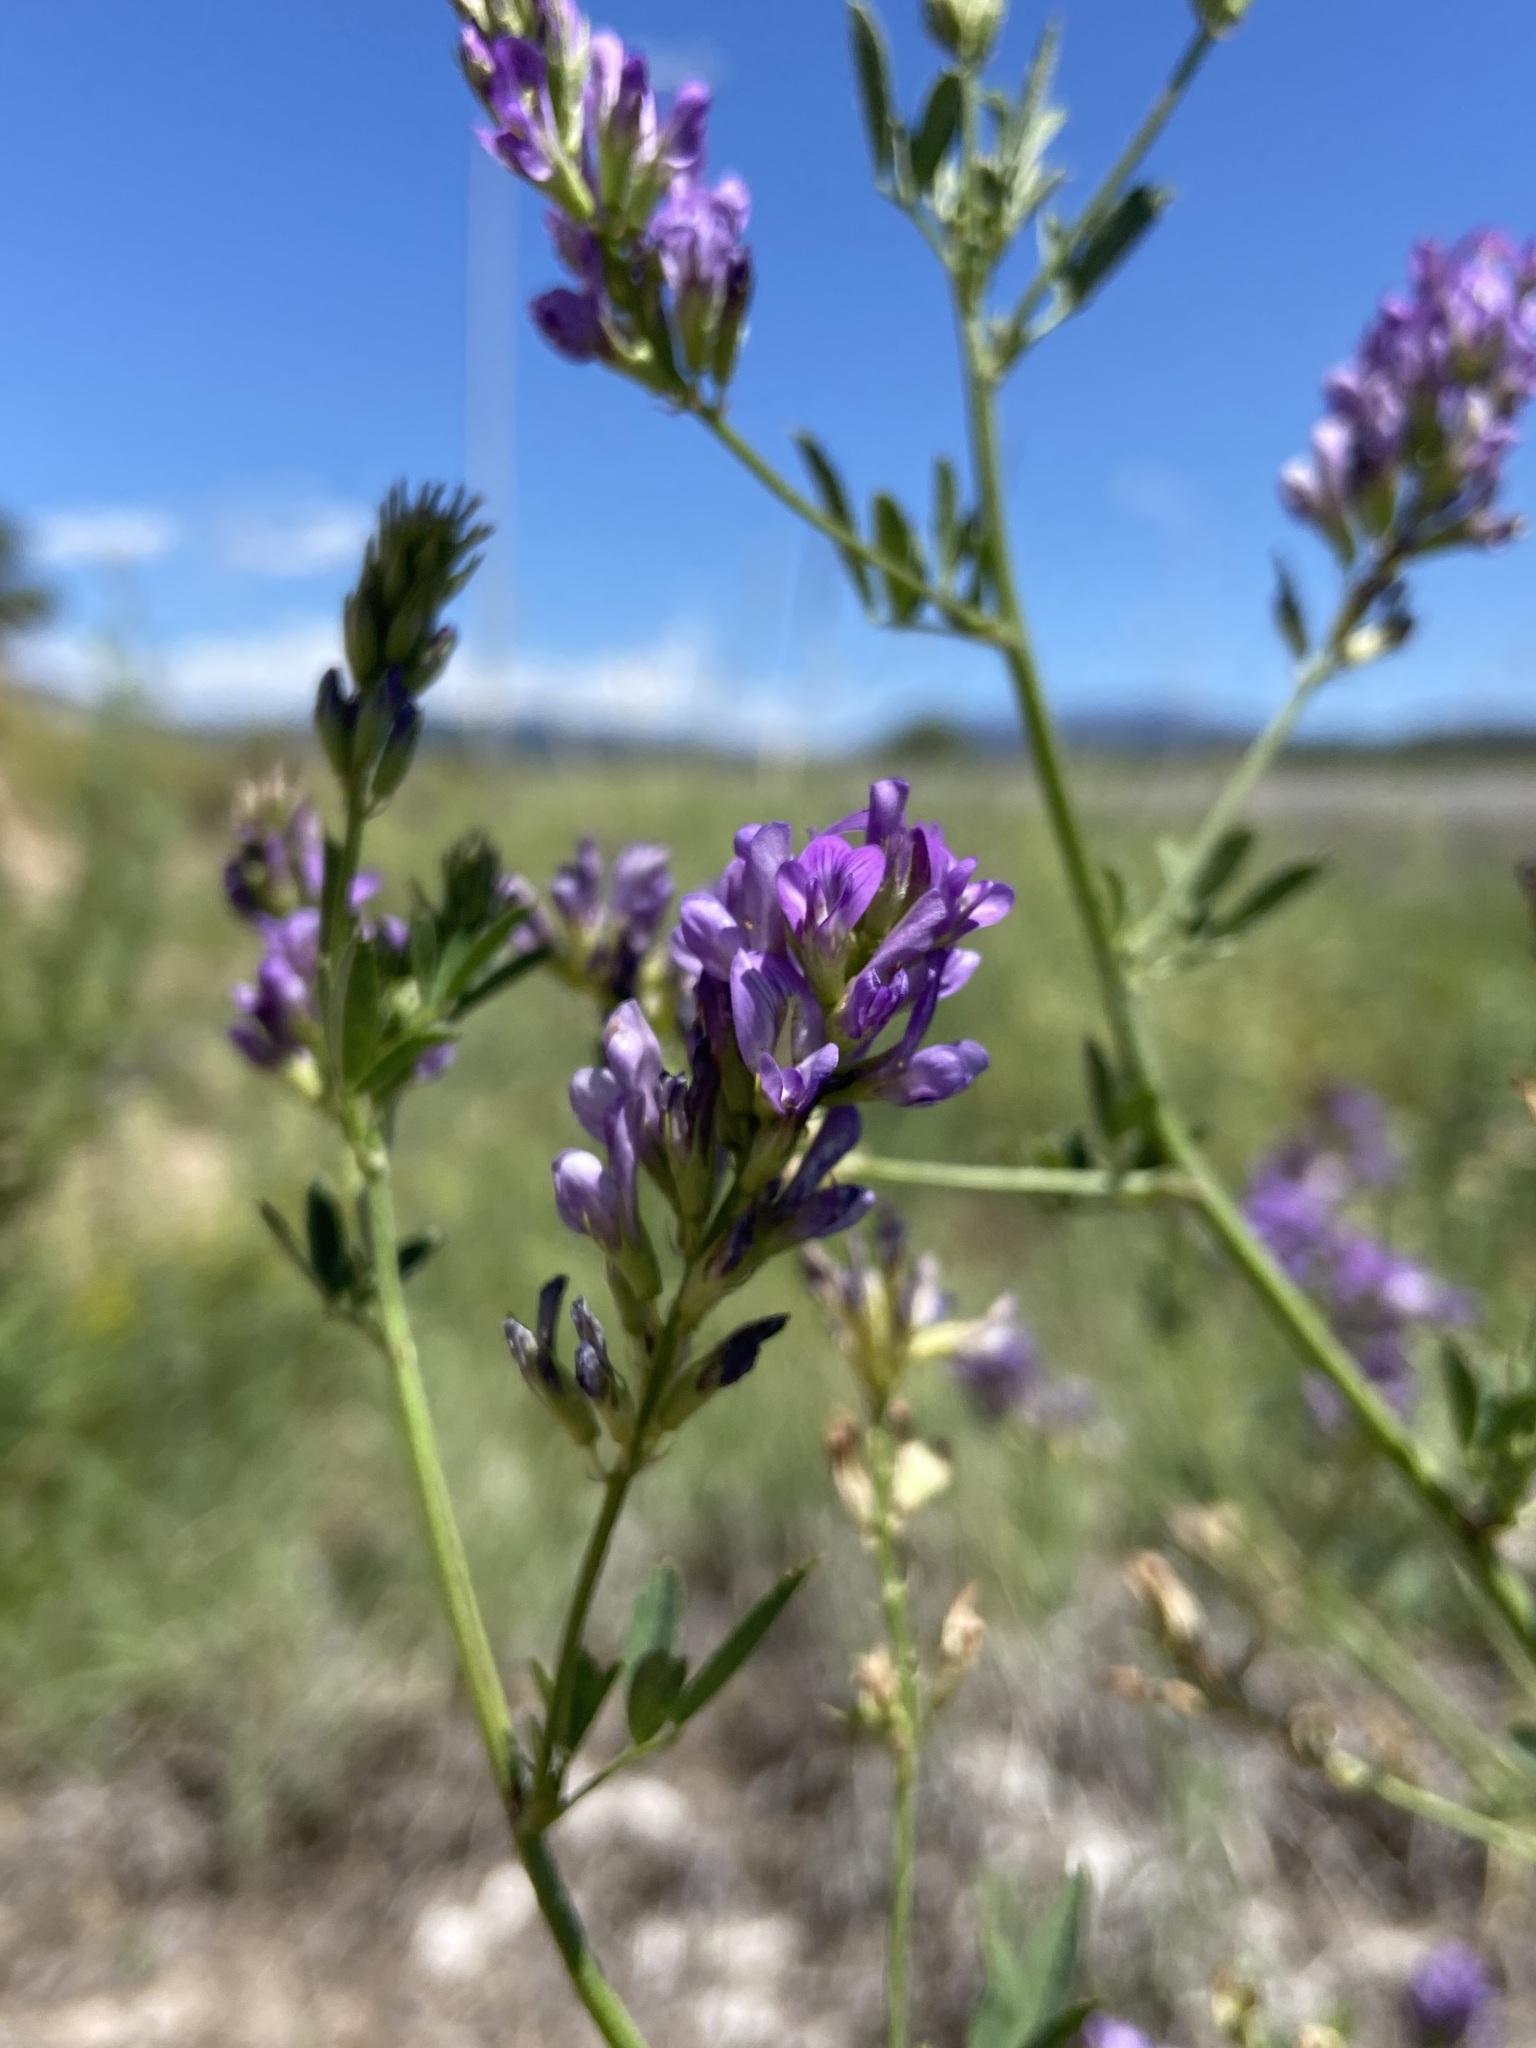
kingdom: Plantae
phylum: Tracheophyta
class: Magnoliopsida
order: Fabales
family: Fabaceae
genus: Medicago
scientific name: Medicago sativa
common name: Alfalfa
